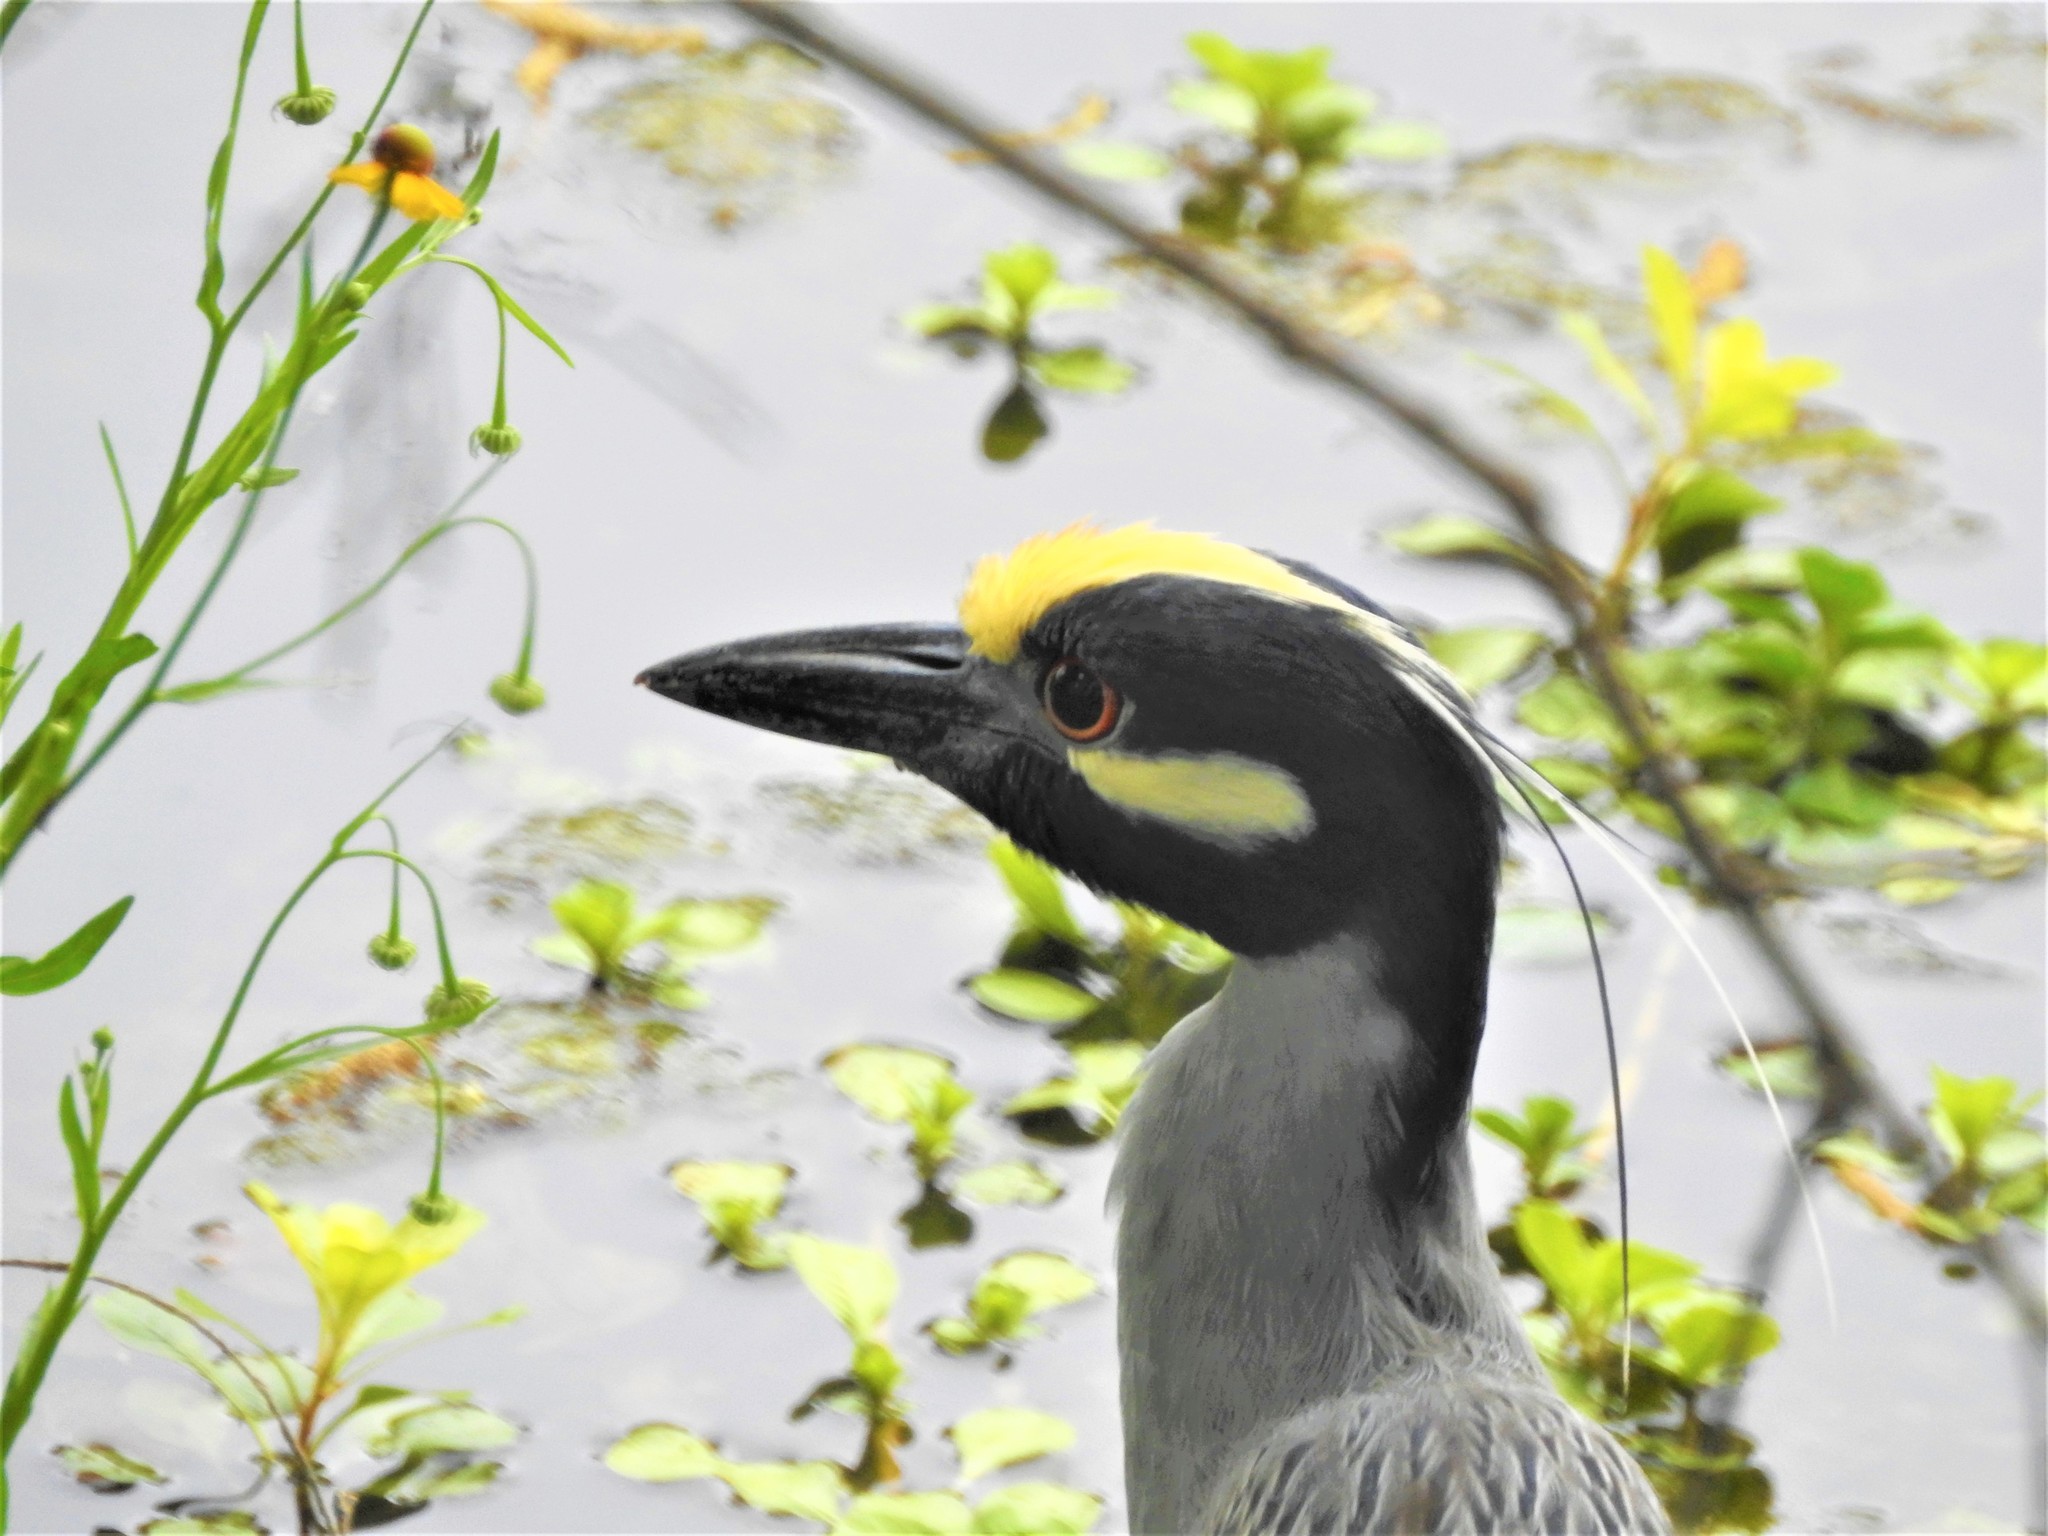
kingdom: Animalia
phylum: Chordata
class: Aves
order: Pelecaniformes
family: Ardeidae
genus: Nyctanassa
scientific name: Nyctanassa violacea
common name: Yellow-crowned night heron
